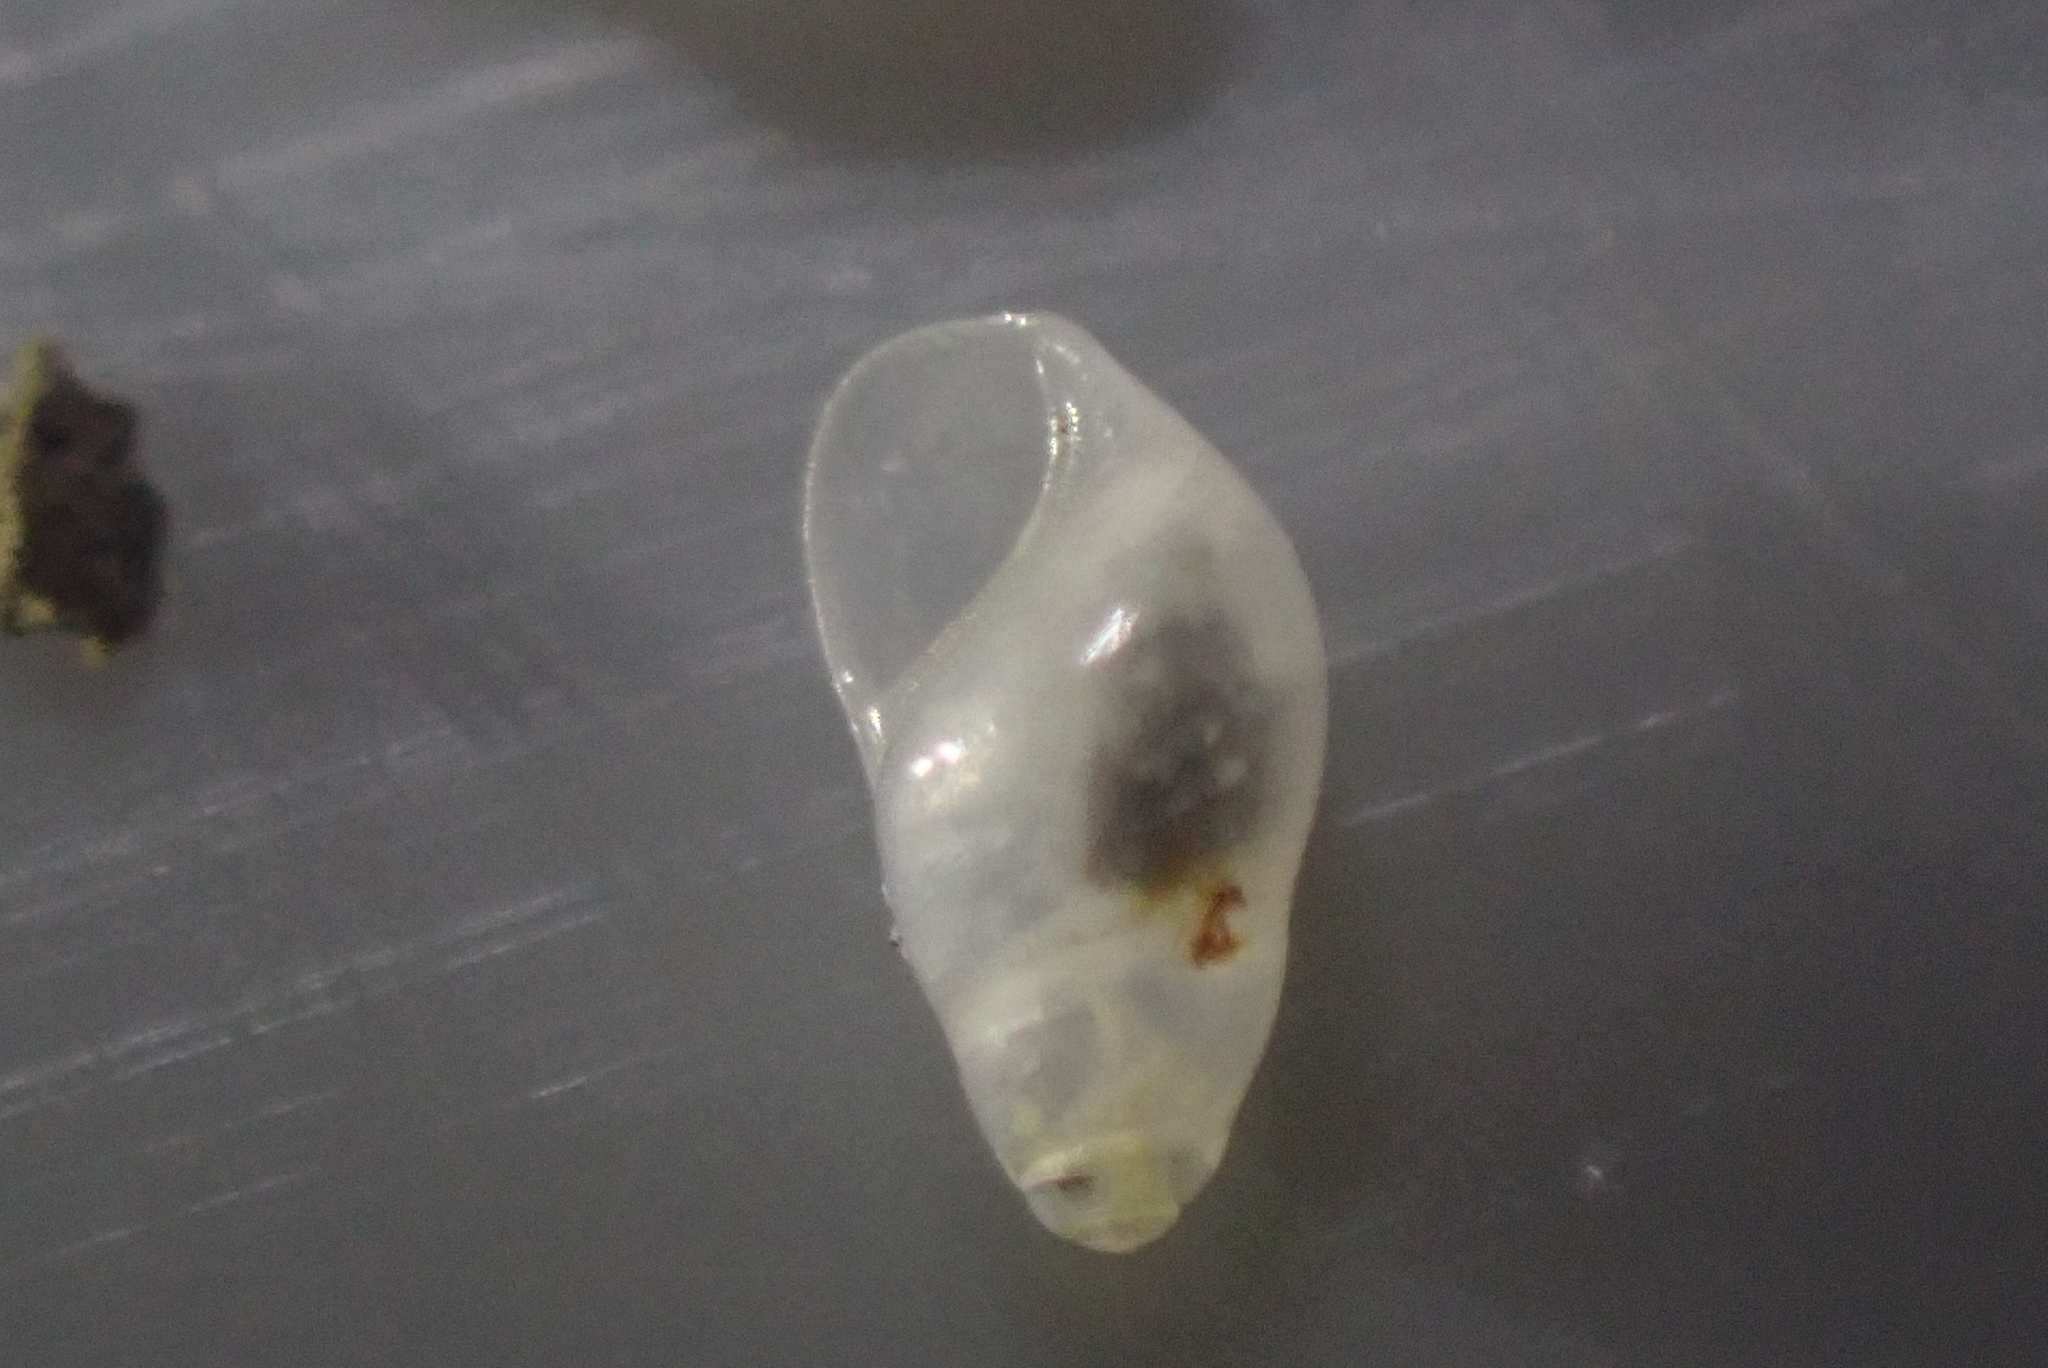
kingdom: Animalia
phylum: Mollusca
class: Gastropoda
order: Littorinimorpha
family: Iravadiidae
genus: Nozeba
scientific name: Nozeba emarginata
